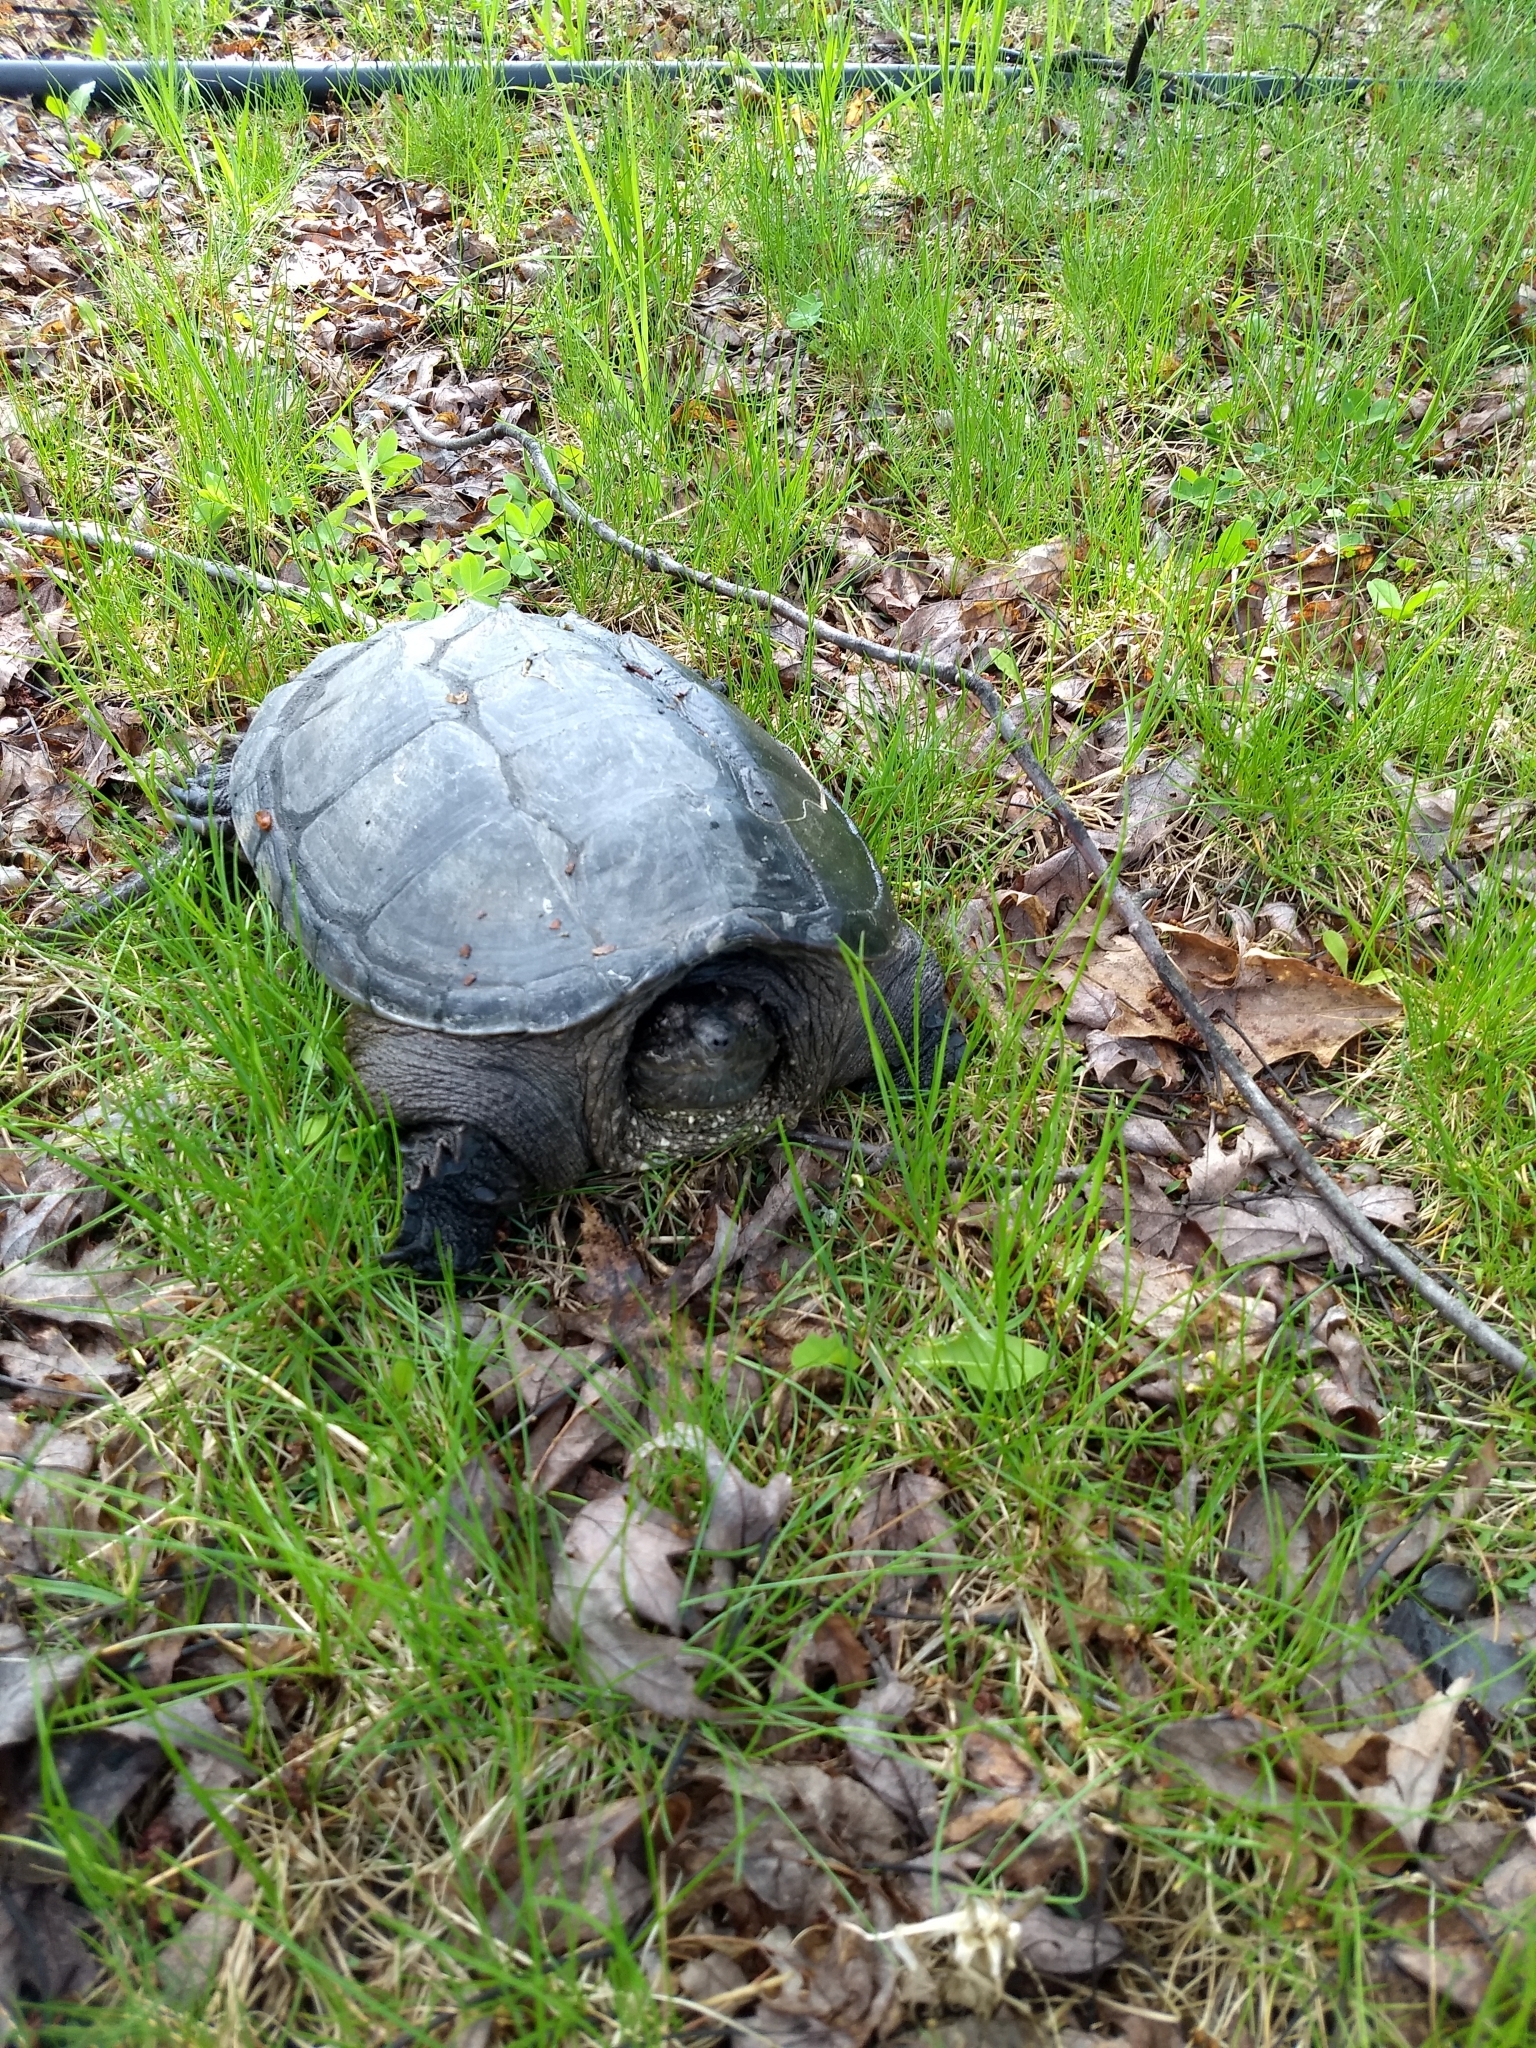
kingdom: Animalia
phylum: Chordata
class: Testudines
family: Chelydridae
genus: Chelydra
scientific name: Chelydra serpentina
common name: Common snapping turtle
